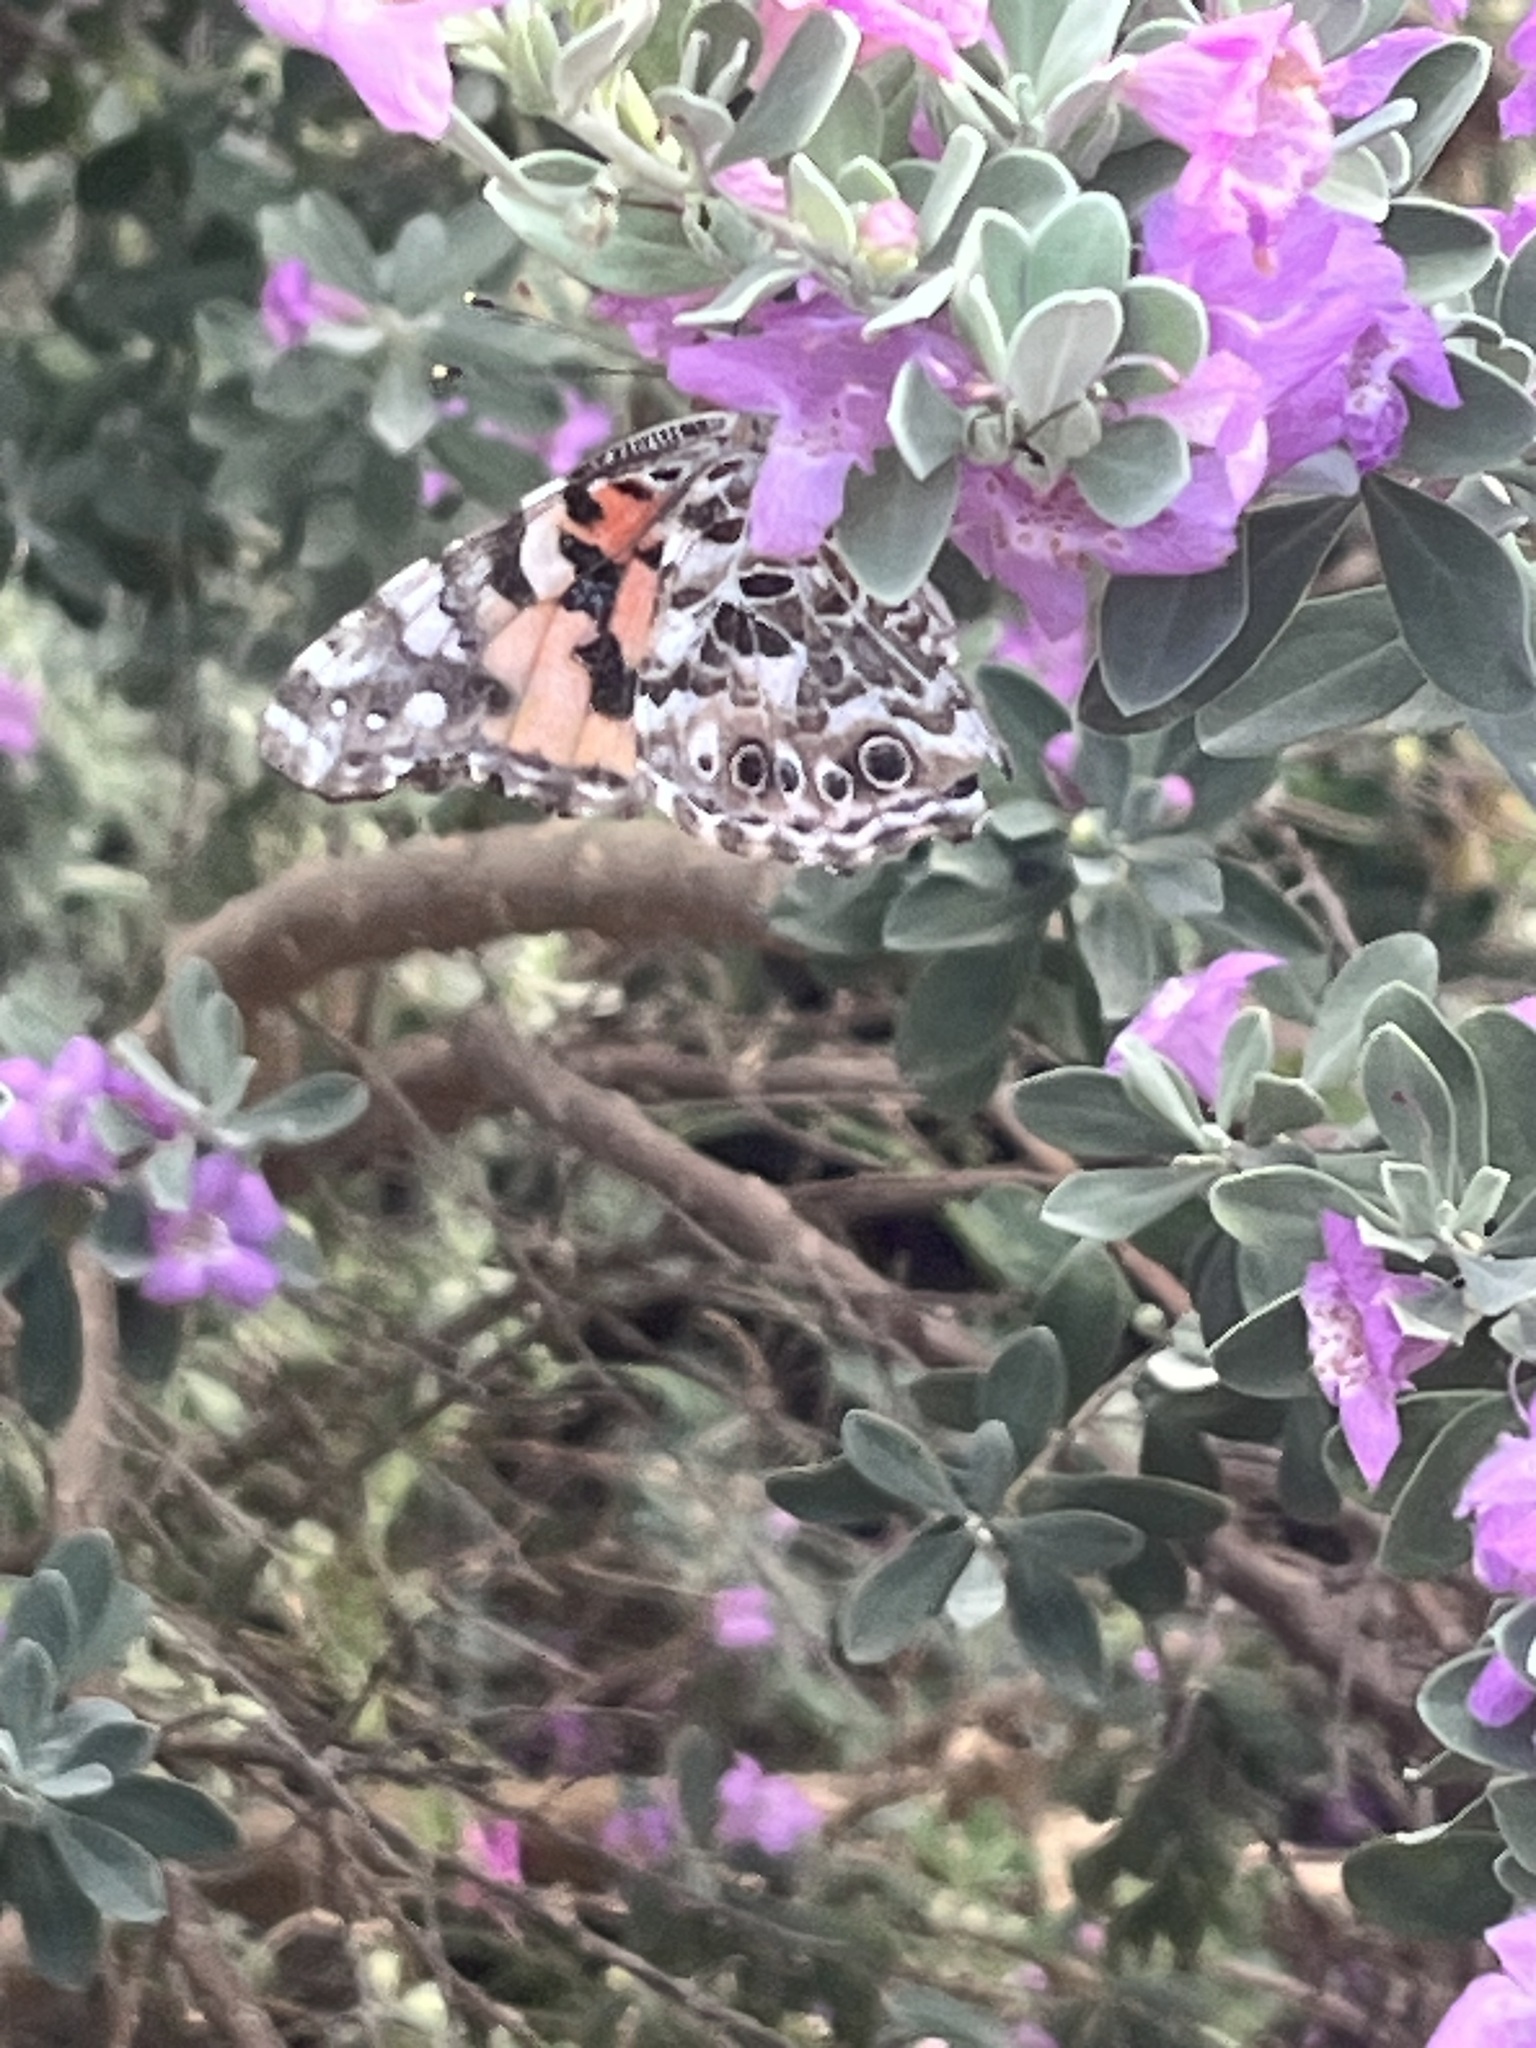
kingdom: Animalia
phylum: Arthropoda
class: Insecta
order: Lepidoptera
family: Nymphalidae
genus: Vanessa
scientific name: Vanessa cardui
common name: Painted lady
